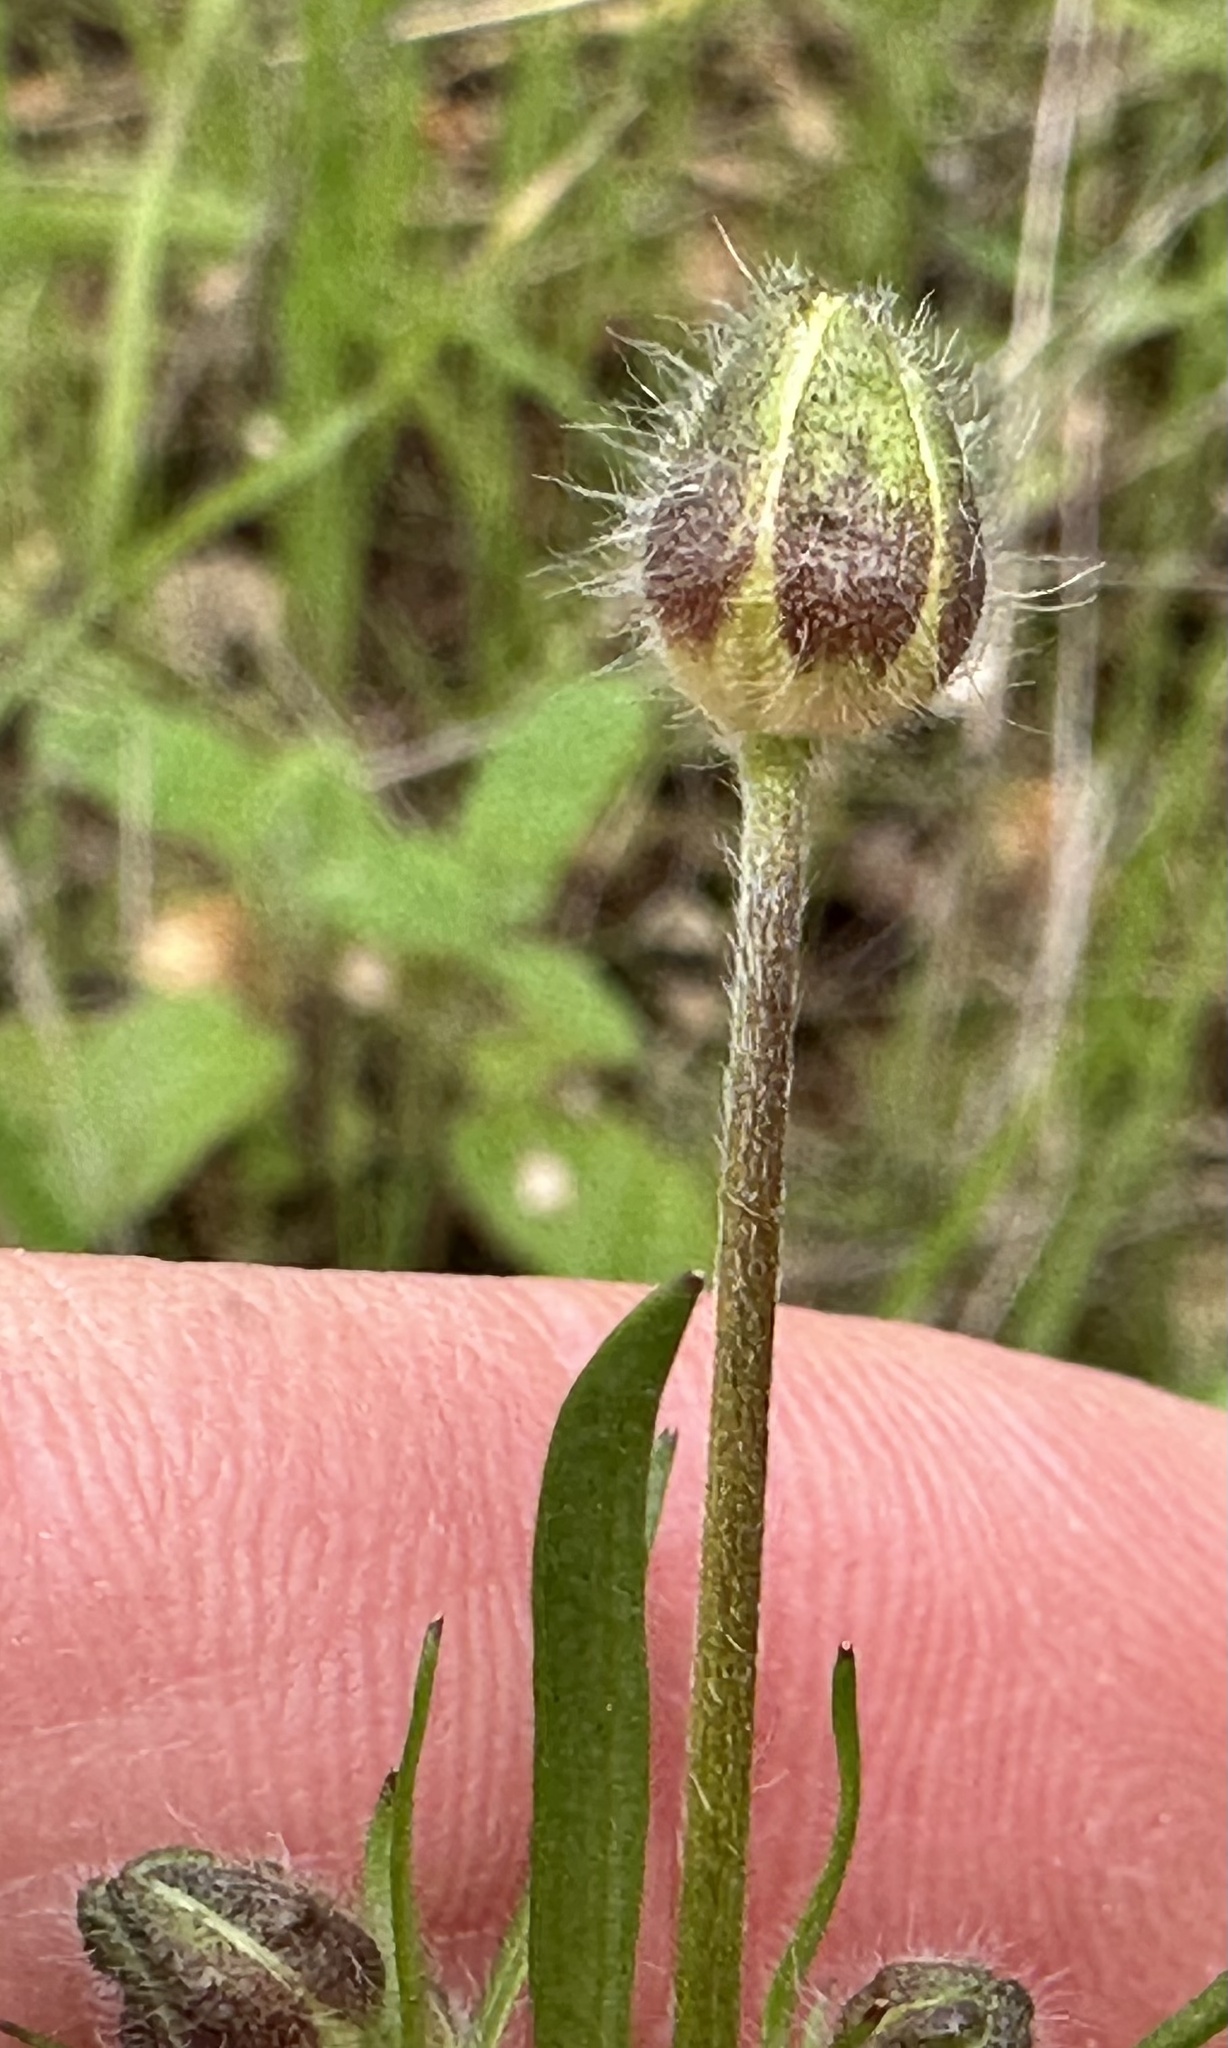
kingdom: Plantae
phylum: Tracheophyta
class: Magnoliopsida
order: Ranunculales
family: Ranunculaceae
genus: Ranunculus
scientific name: Ranunculus californicus
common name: California buttercup
